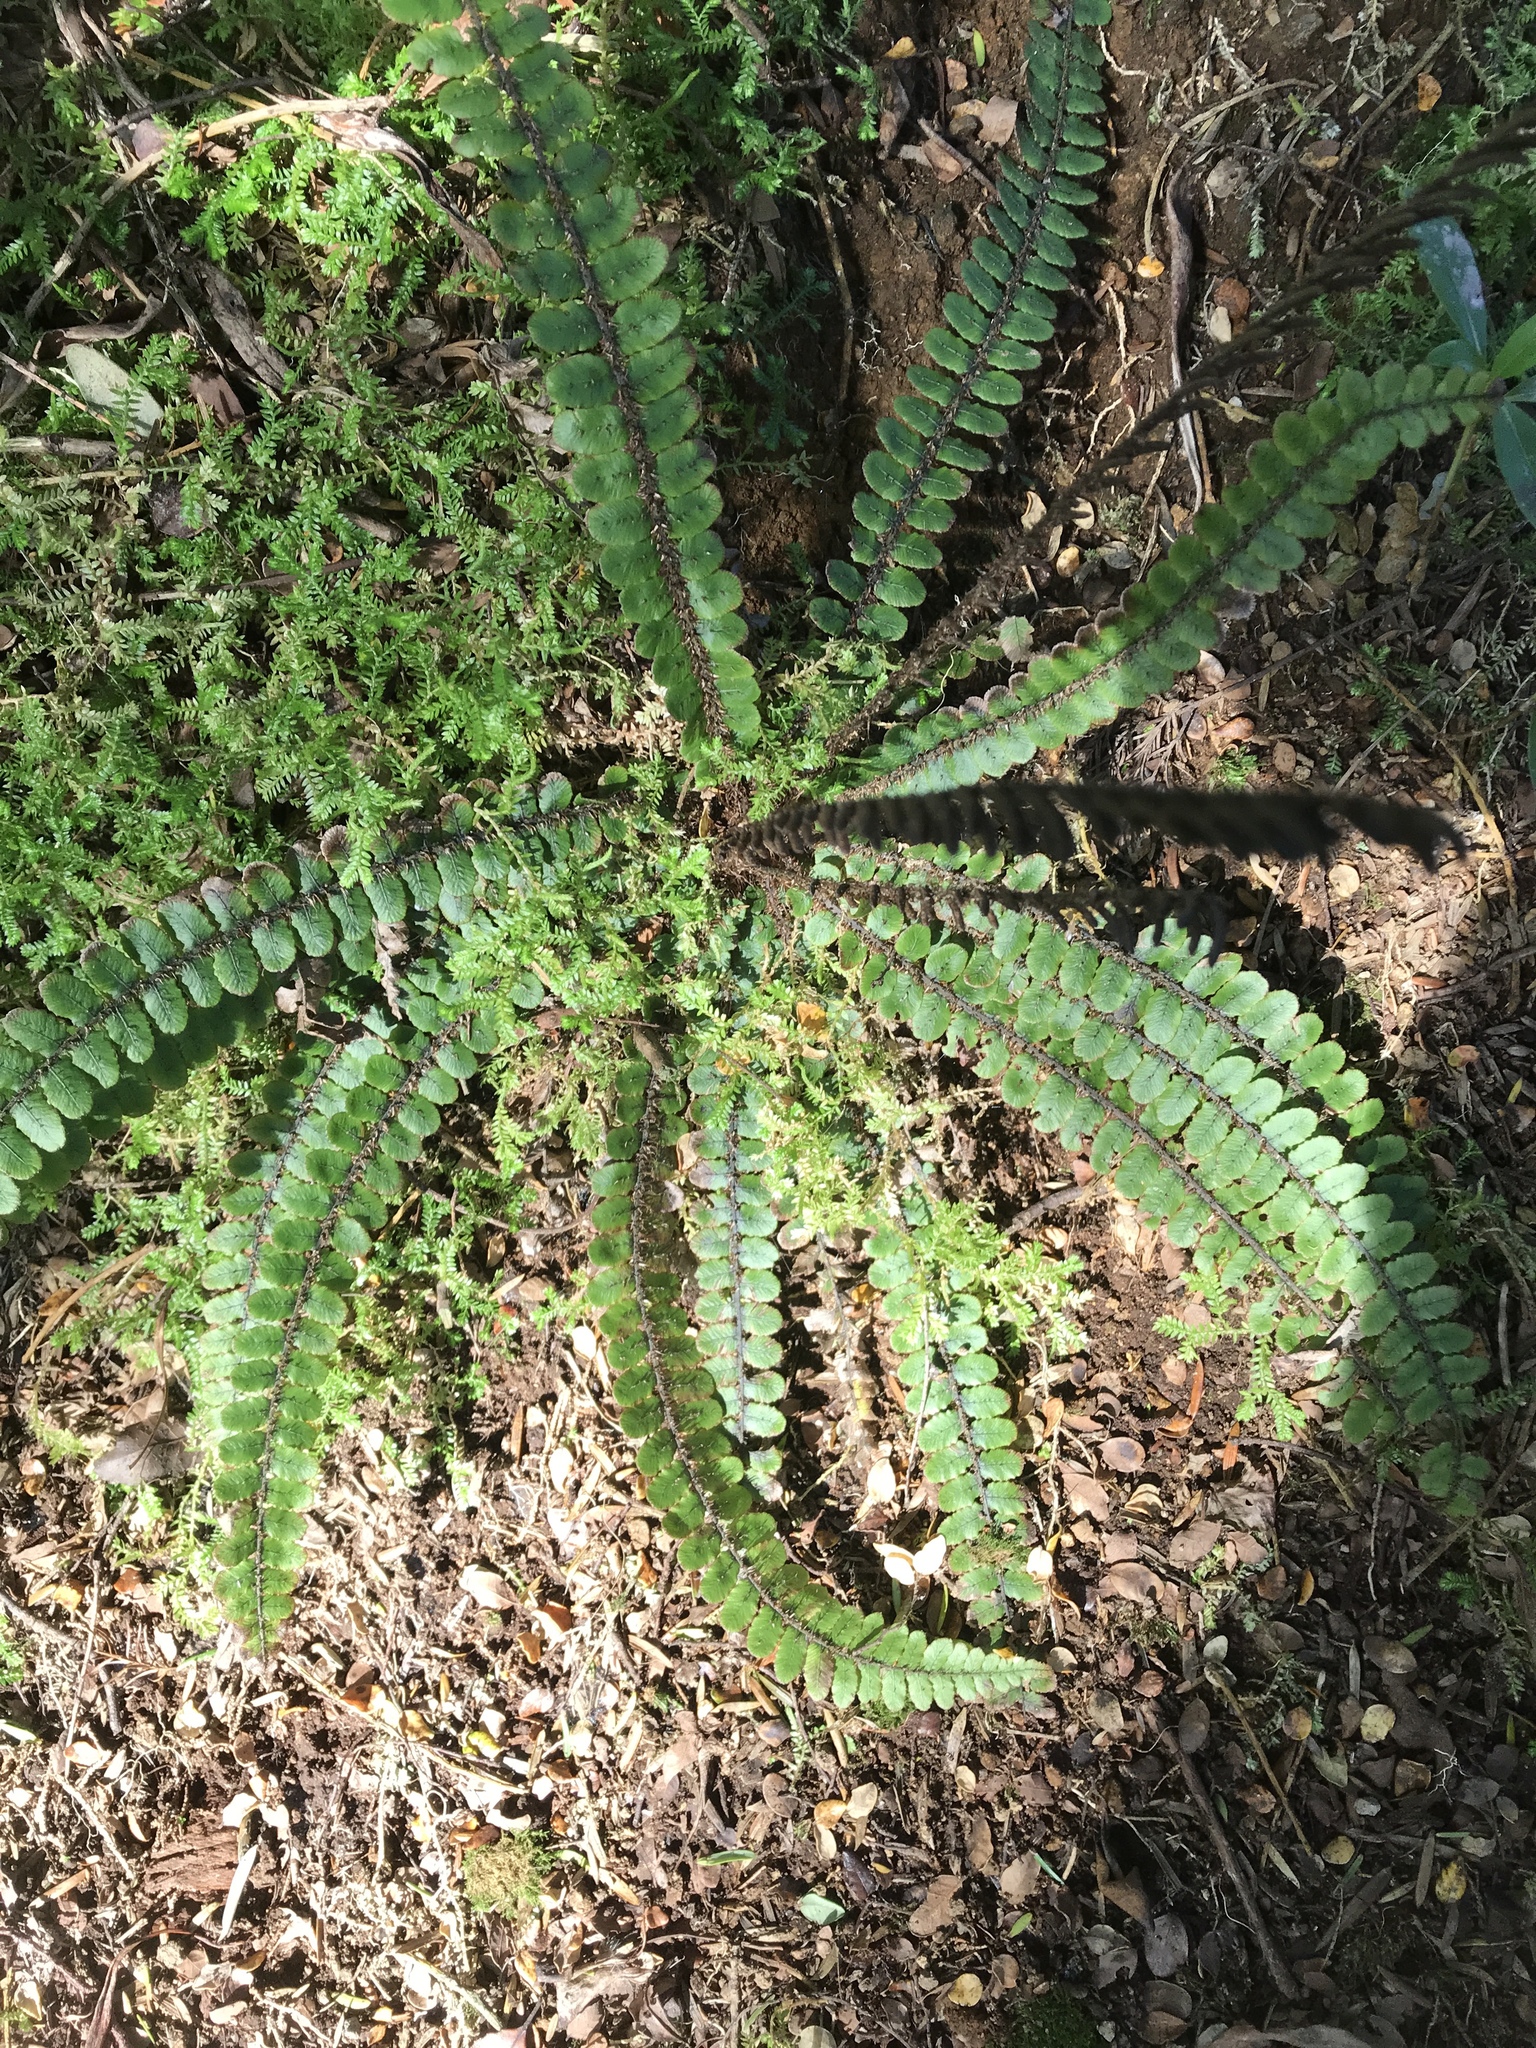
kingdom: Plantae
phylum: Tracheophyta
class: Polypodiopsida
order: Polypodiales
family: Blechnaceae
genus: Cranfillia
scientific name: Cranfillia fluviatilis
